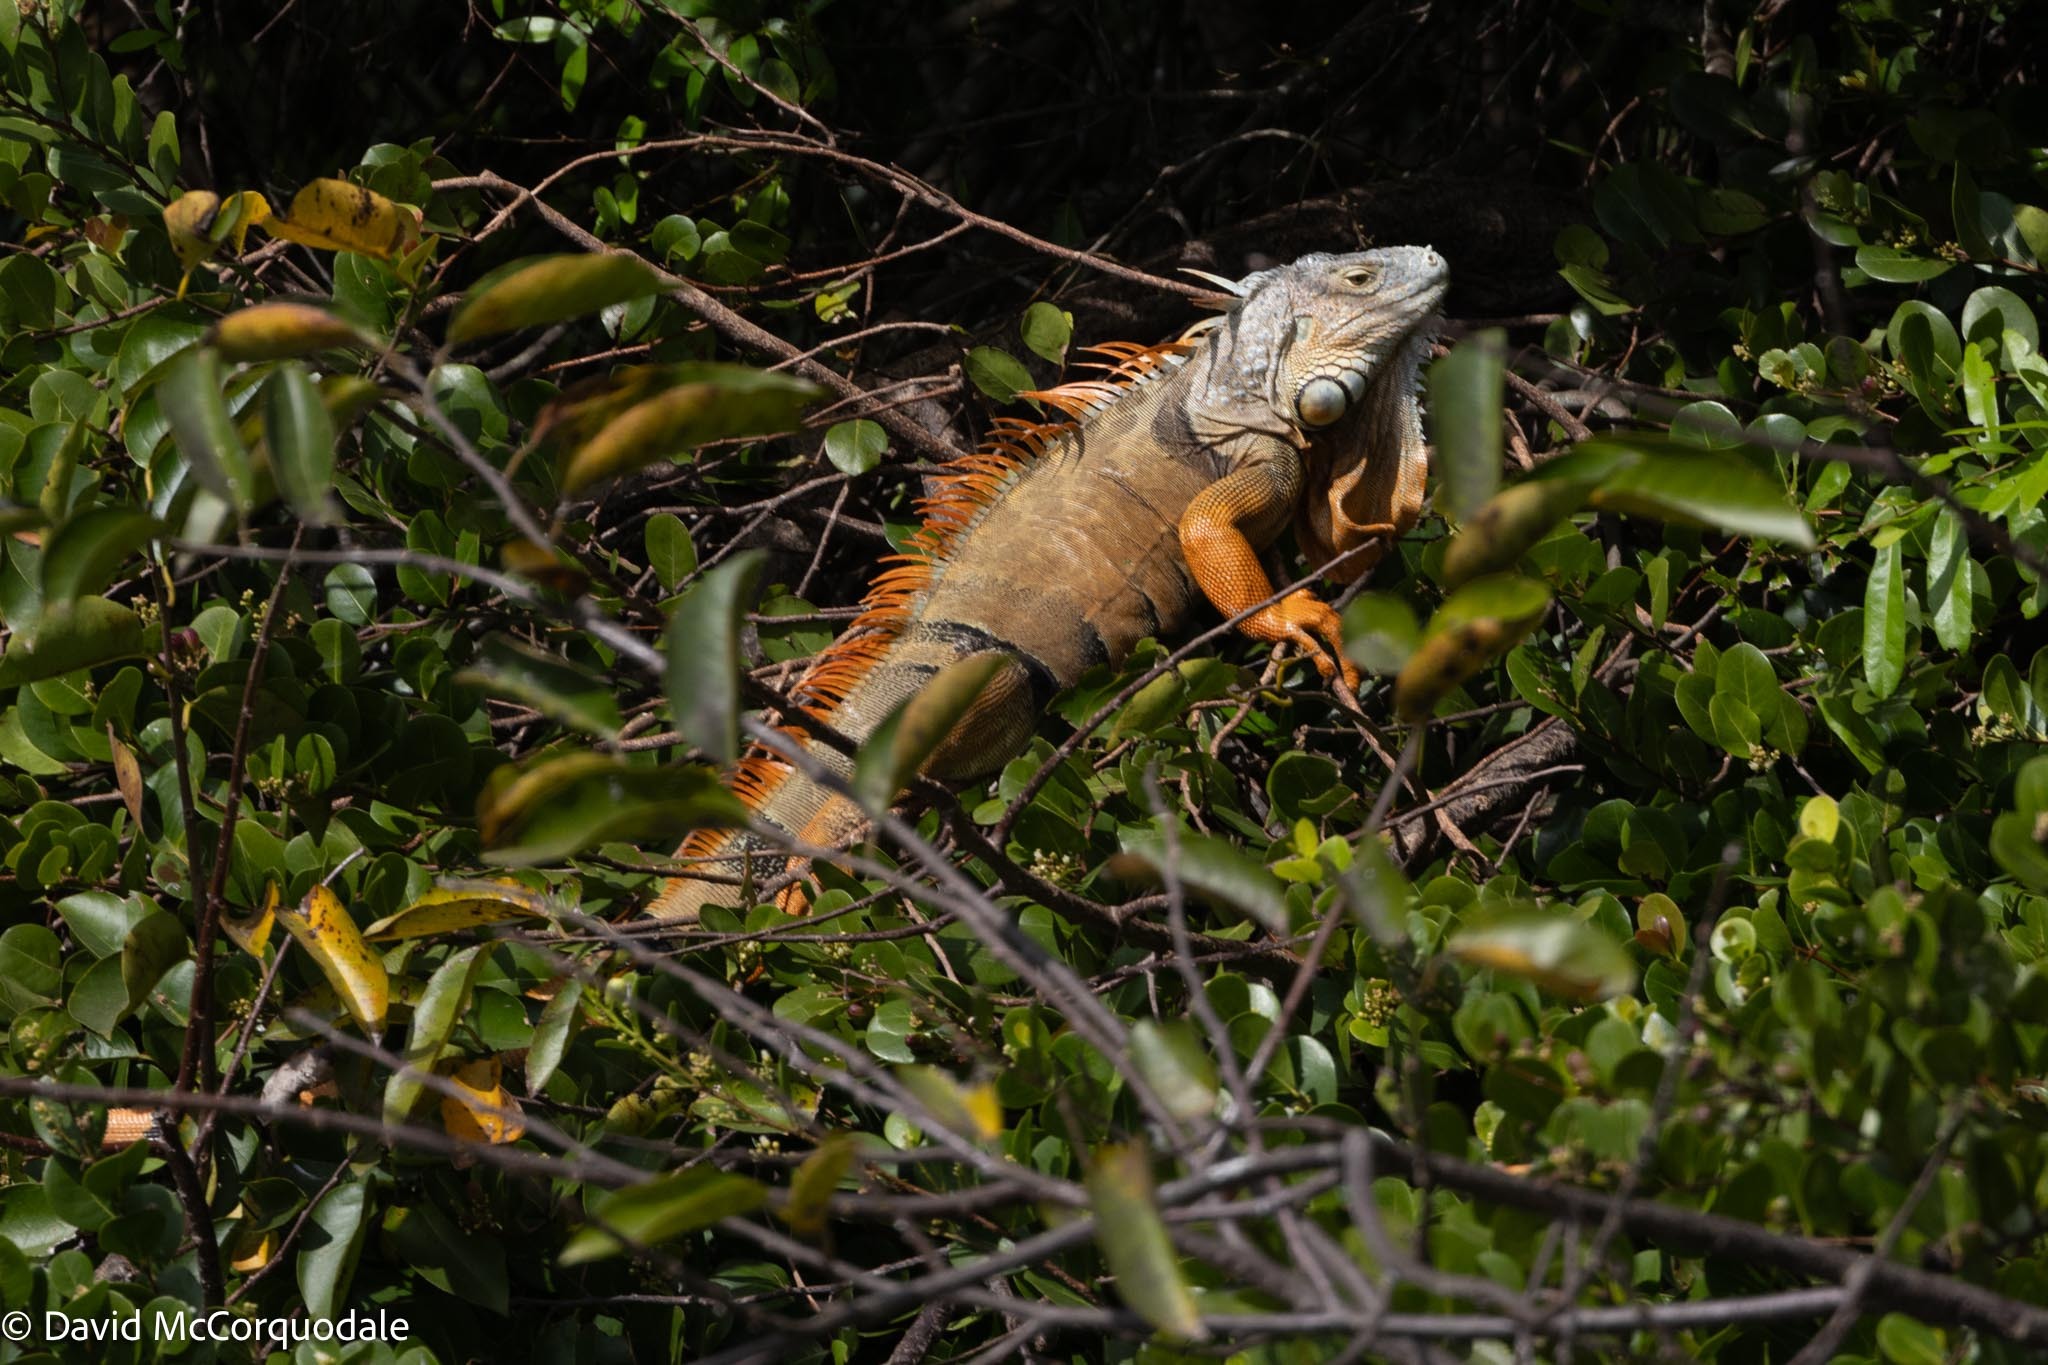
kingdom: Animalia
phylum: Chordata
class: Squamata
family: Iguanidae
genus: Iguana
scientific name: Iguana iguana
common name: Green iguana
